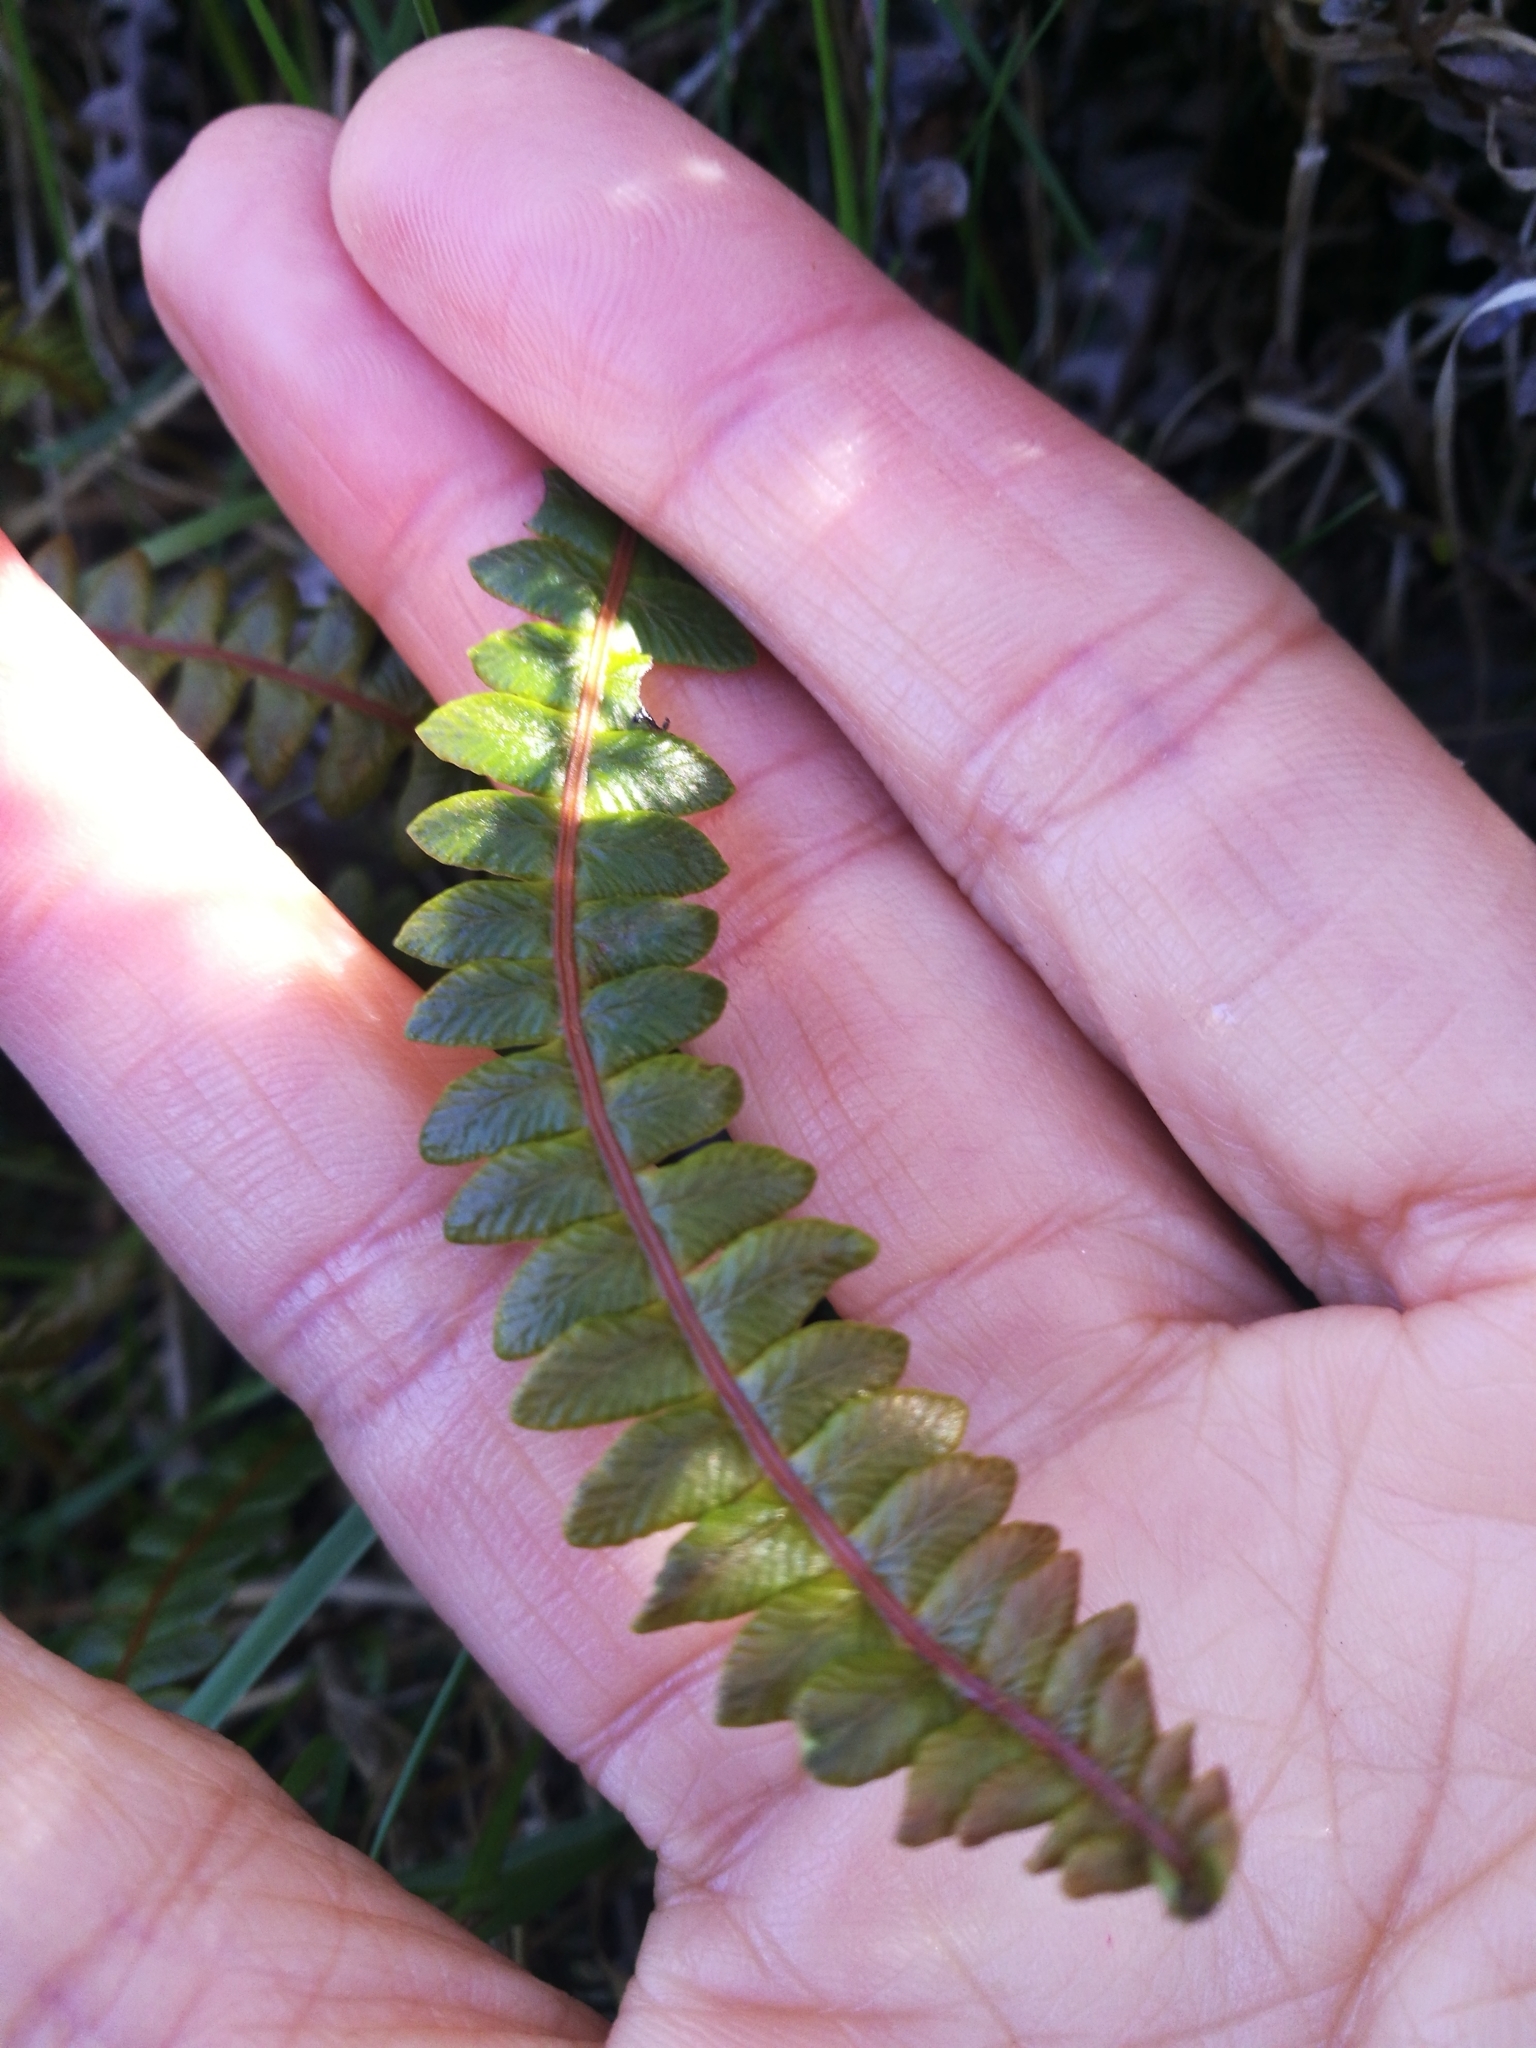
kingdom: Plantae
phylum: Tracheophyta
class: Polypodiopsida
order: Polypodiales
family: Blechnaceae
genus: Austroblechnum
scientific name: Austroblechnum penna-marina
